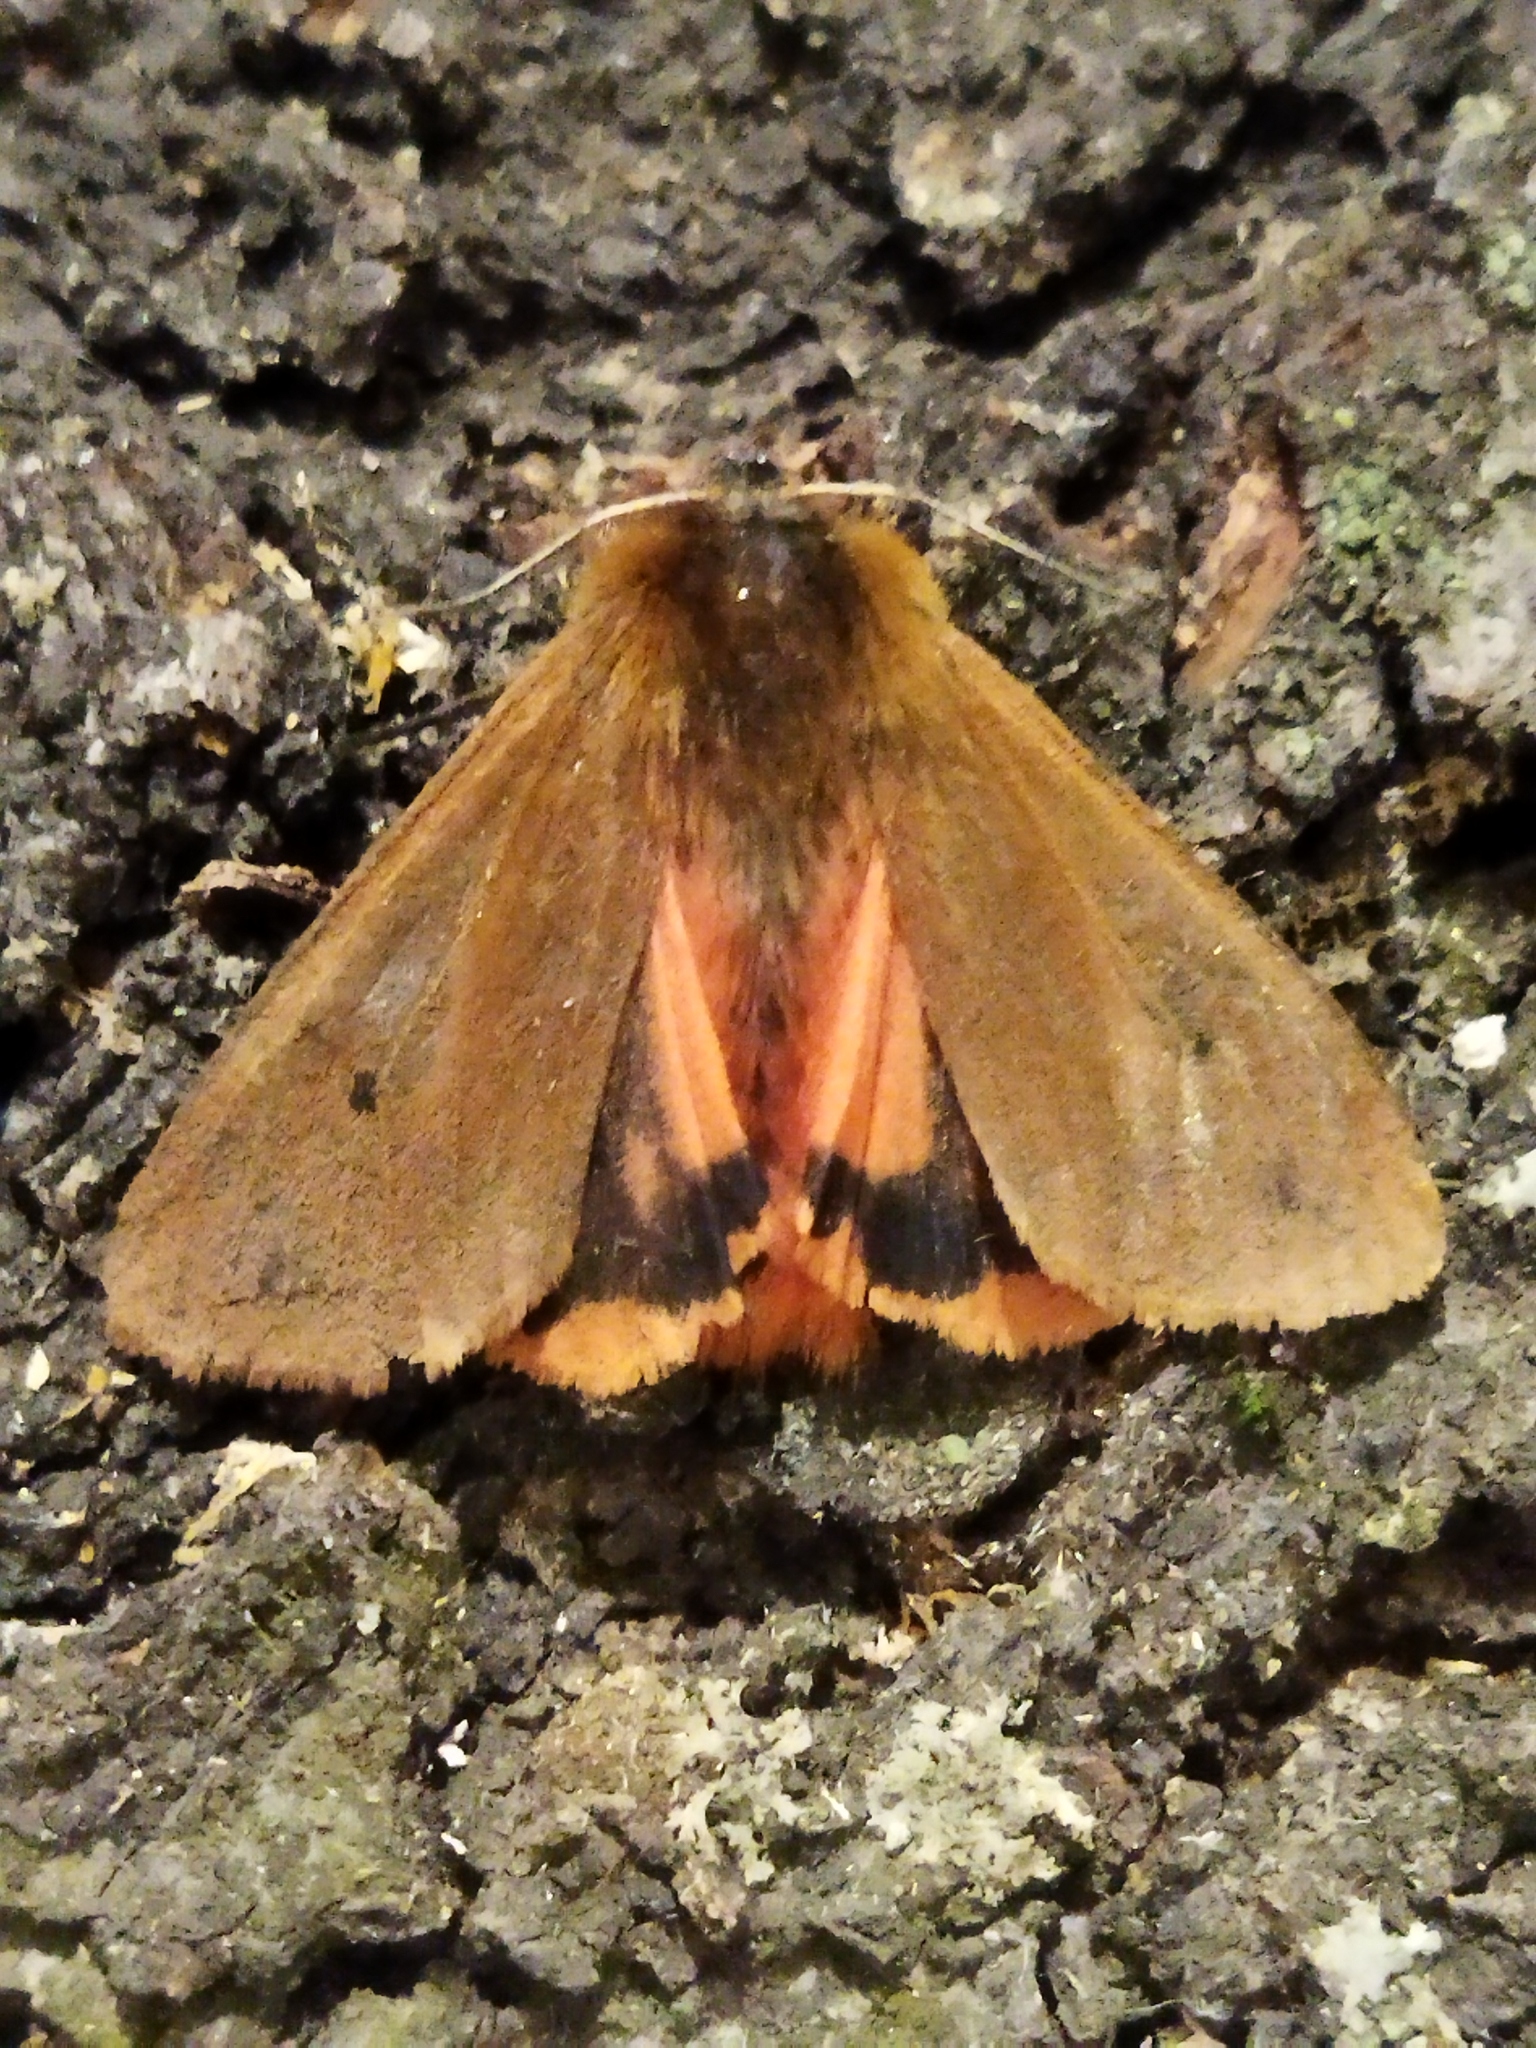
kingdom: Animalia
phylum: Arthropoda
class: Insecta
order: Lepidoptera
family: Erebidae
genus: Phragmatobia
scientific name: Phragmatobia fuliginosa
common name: Ruby tiger
